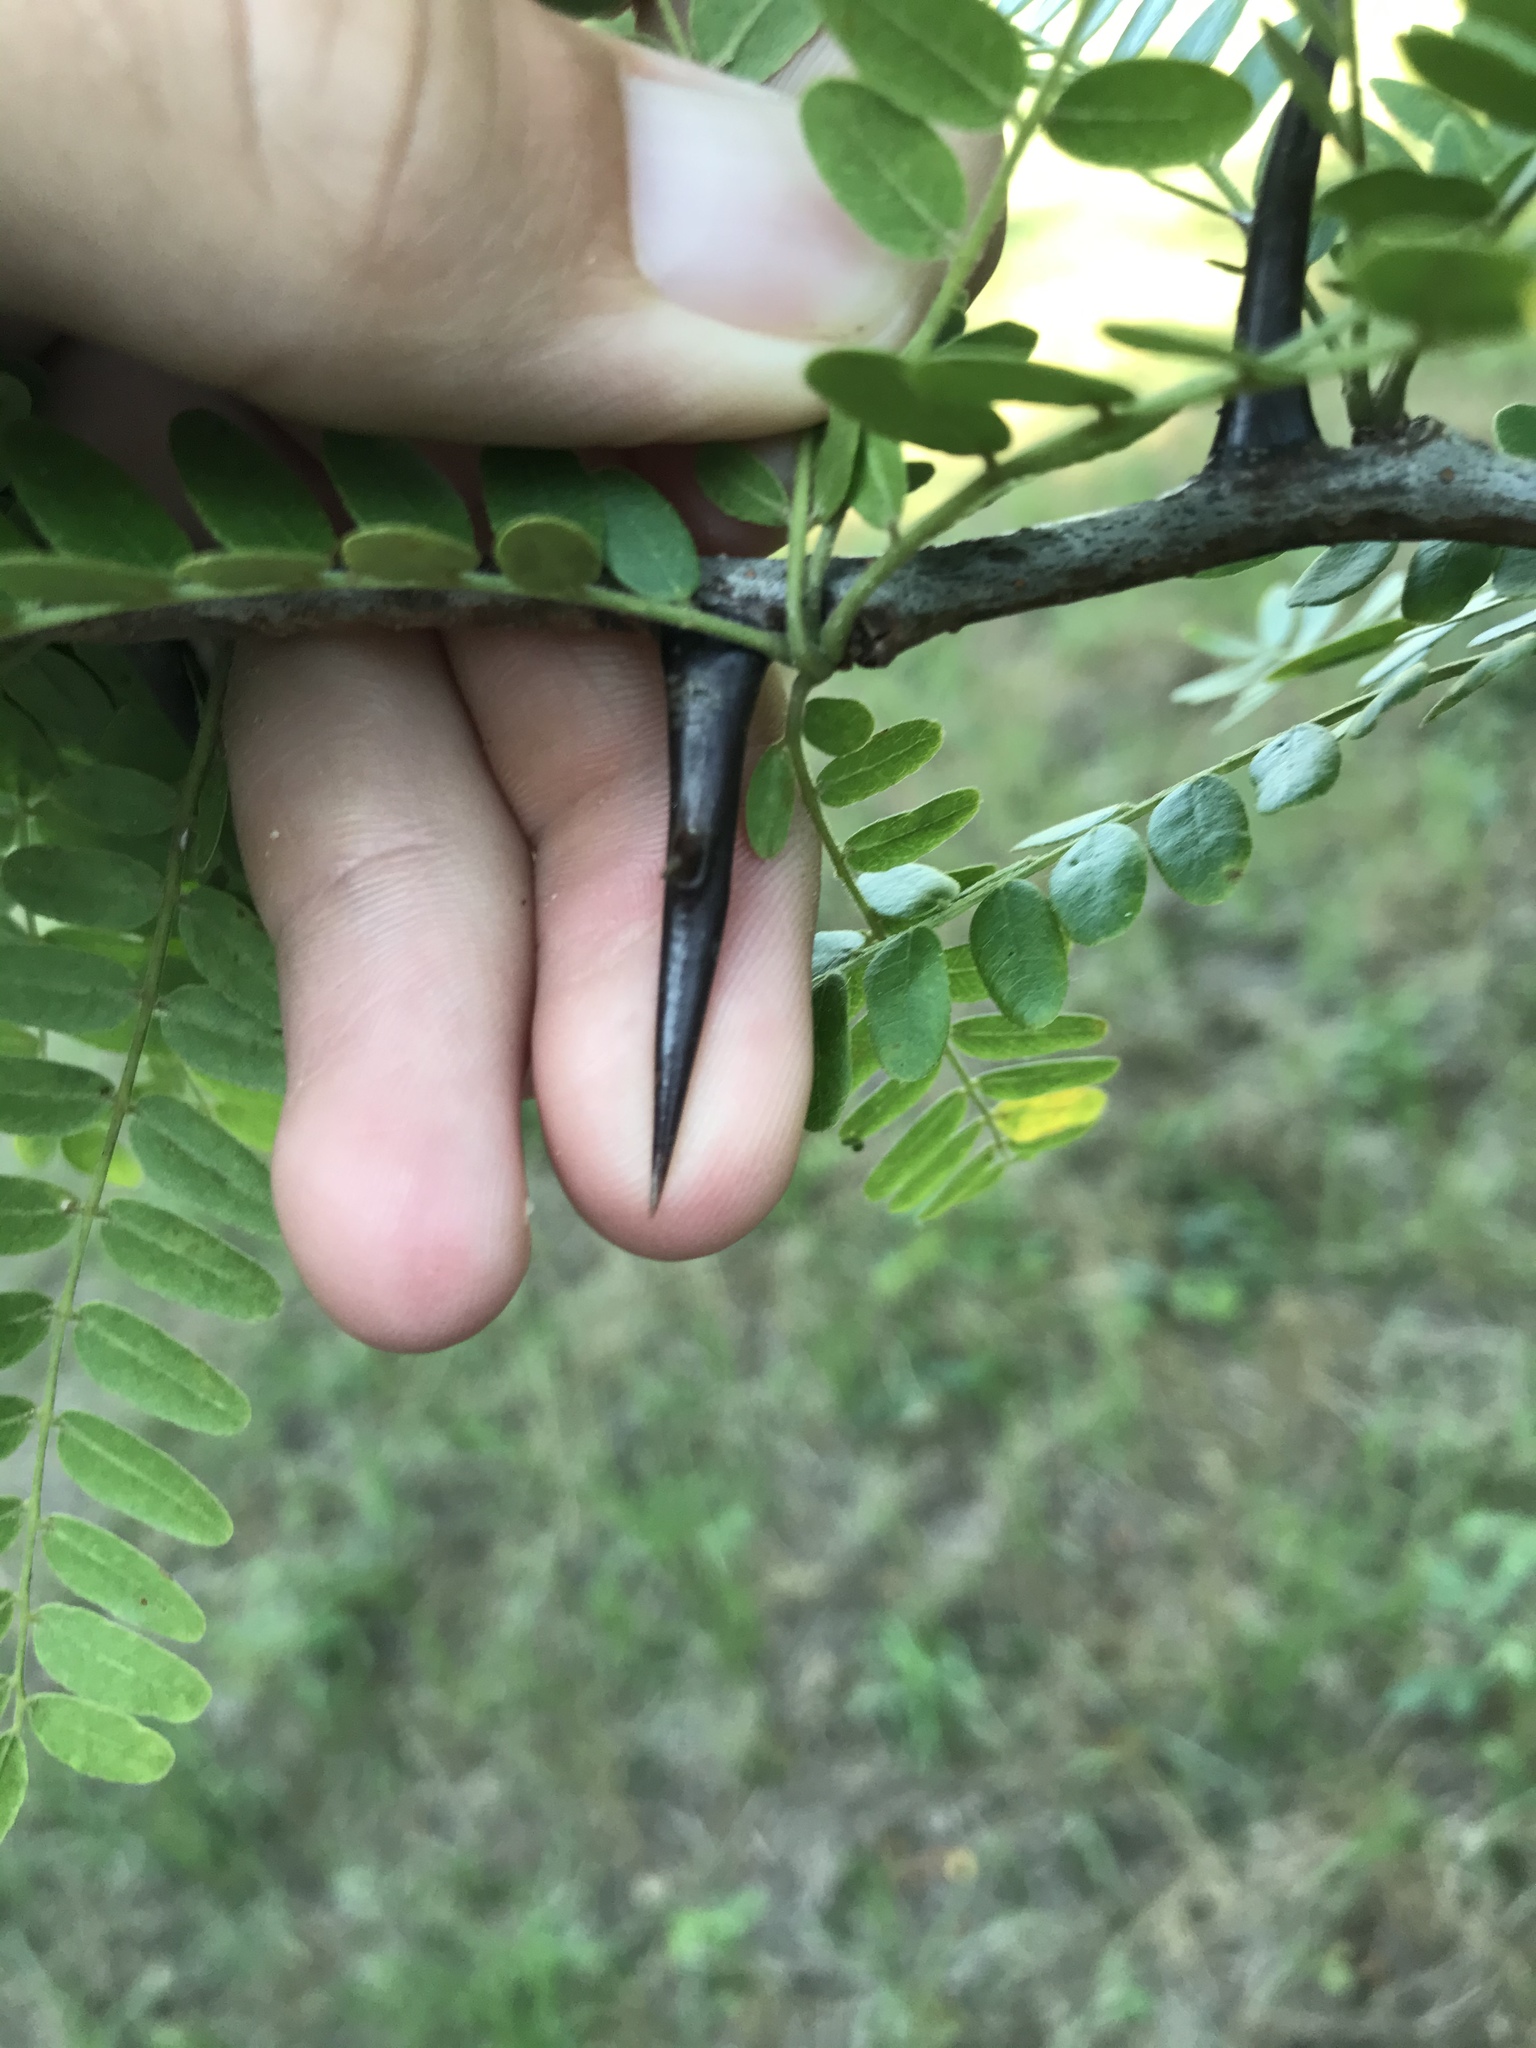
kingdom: Plantae
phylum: Tracheophyta
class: Magnoliopsida
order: Fabales
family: Fabaceae
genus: Gleditsia
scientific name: Gleditsia triacanthos
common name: Common honeylocust
